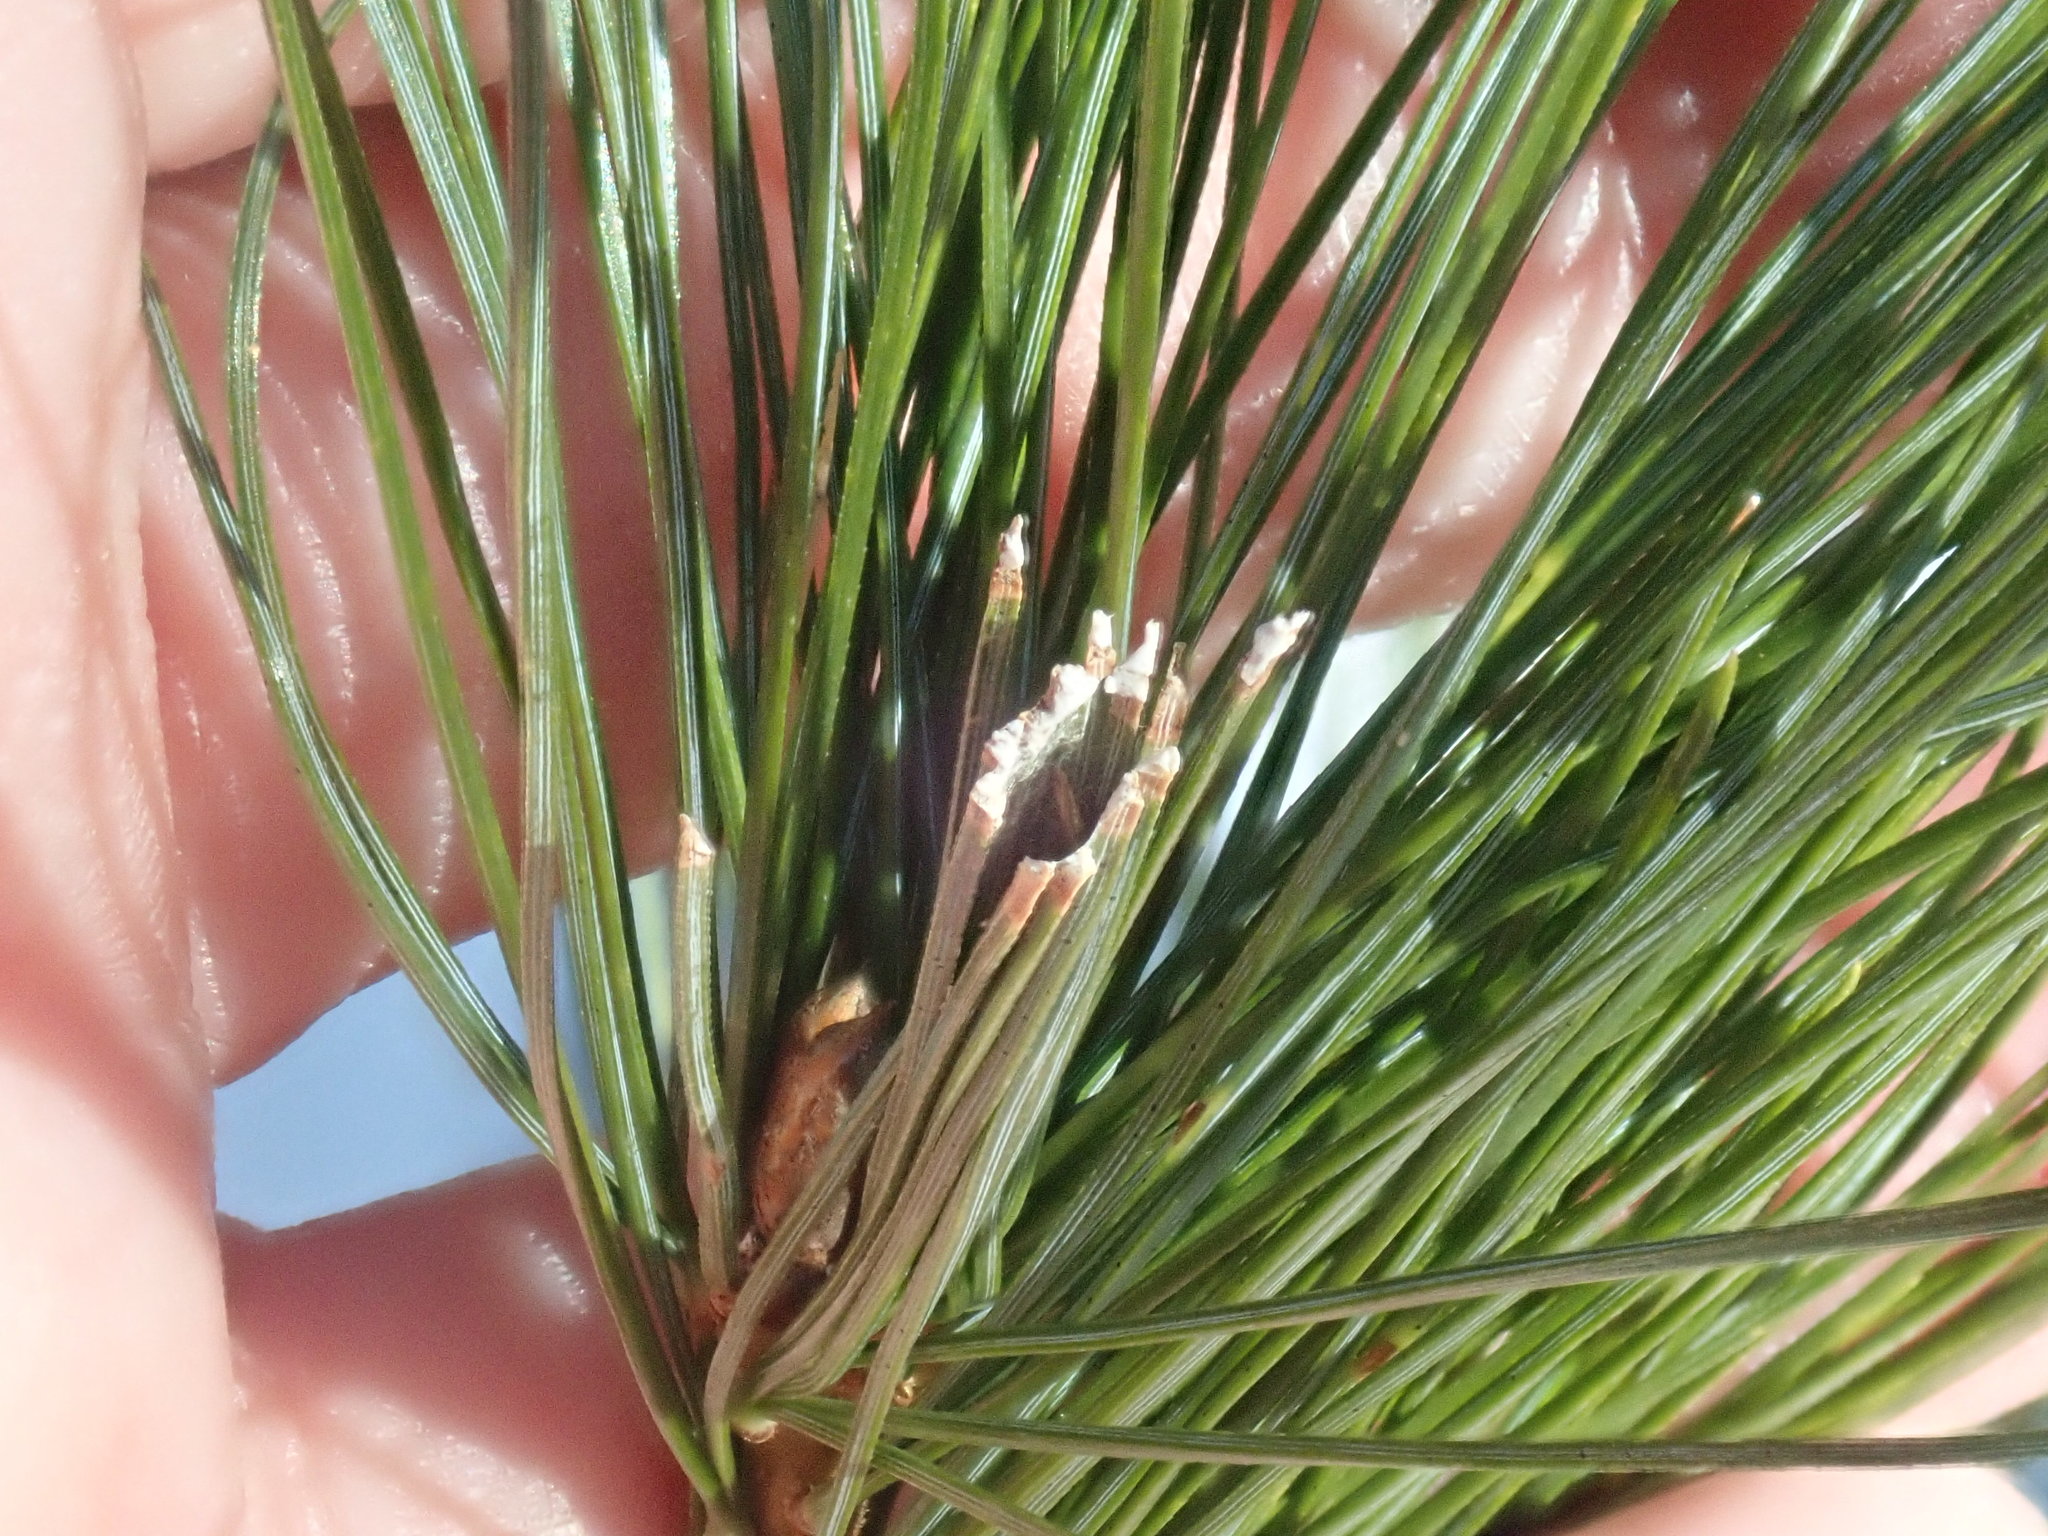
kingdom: Animalia
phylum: Arthropoda
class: Insecta
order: Lepidoptera
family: Tortricidae
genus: Argyrotaenia
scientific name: Argyrotaenia pinatubana
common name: Pine tube moth
